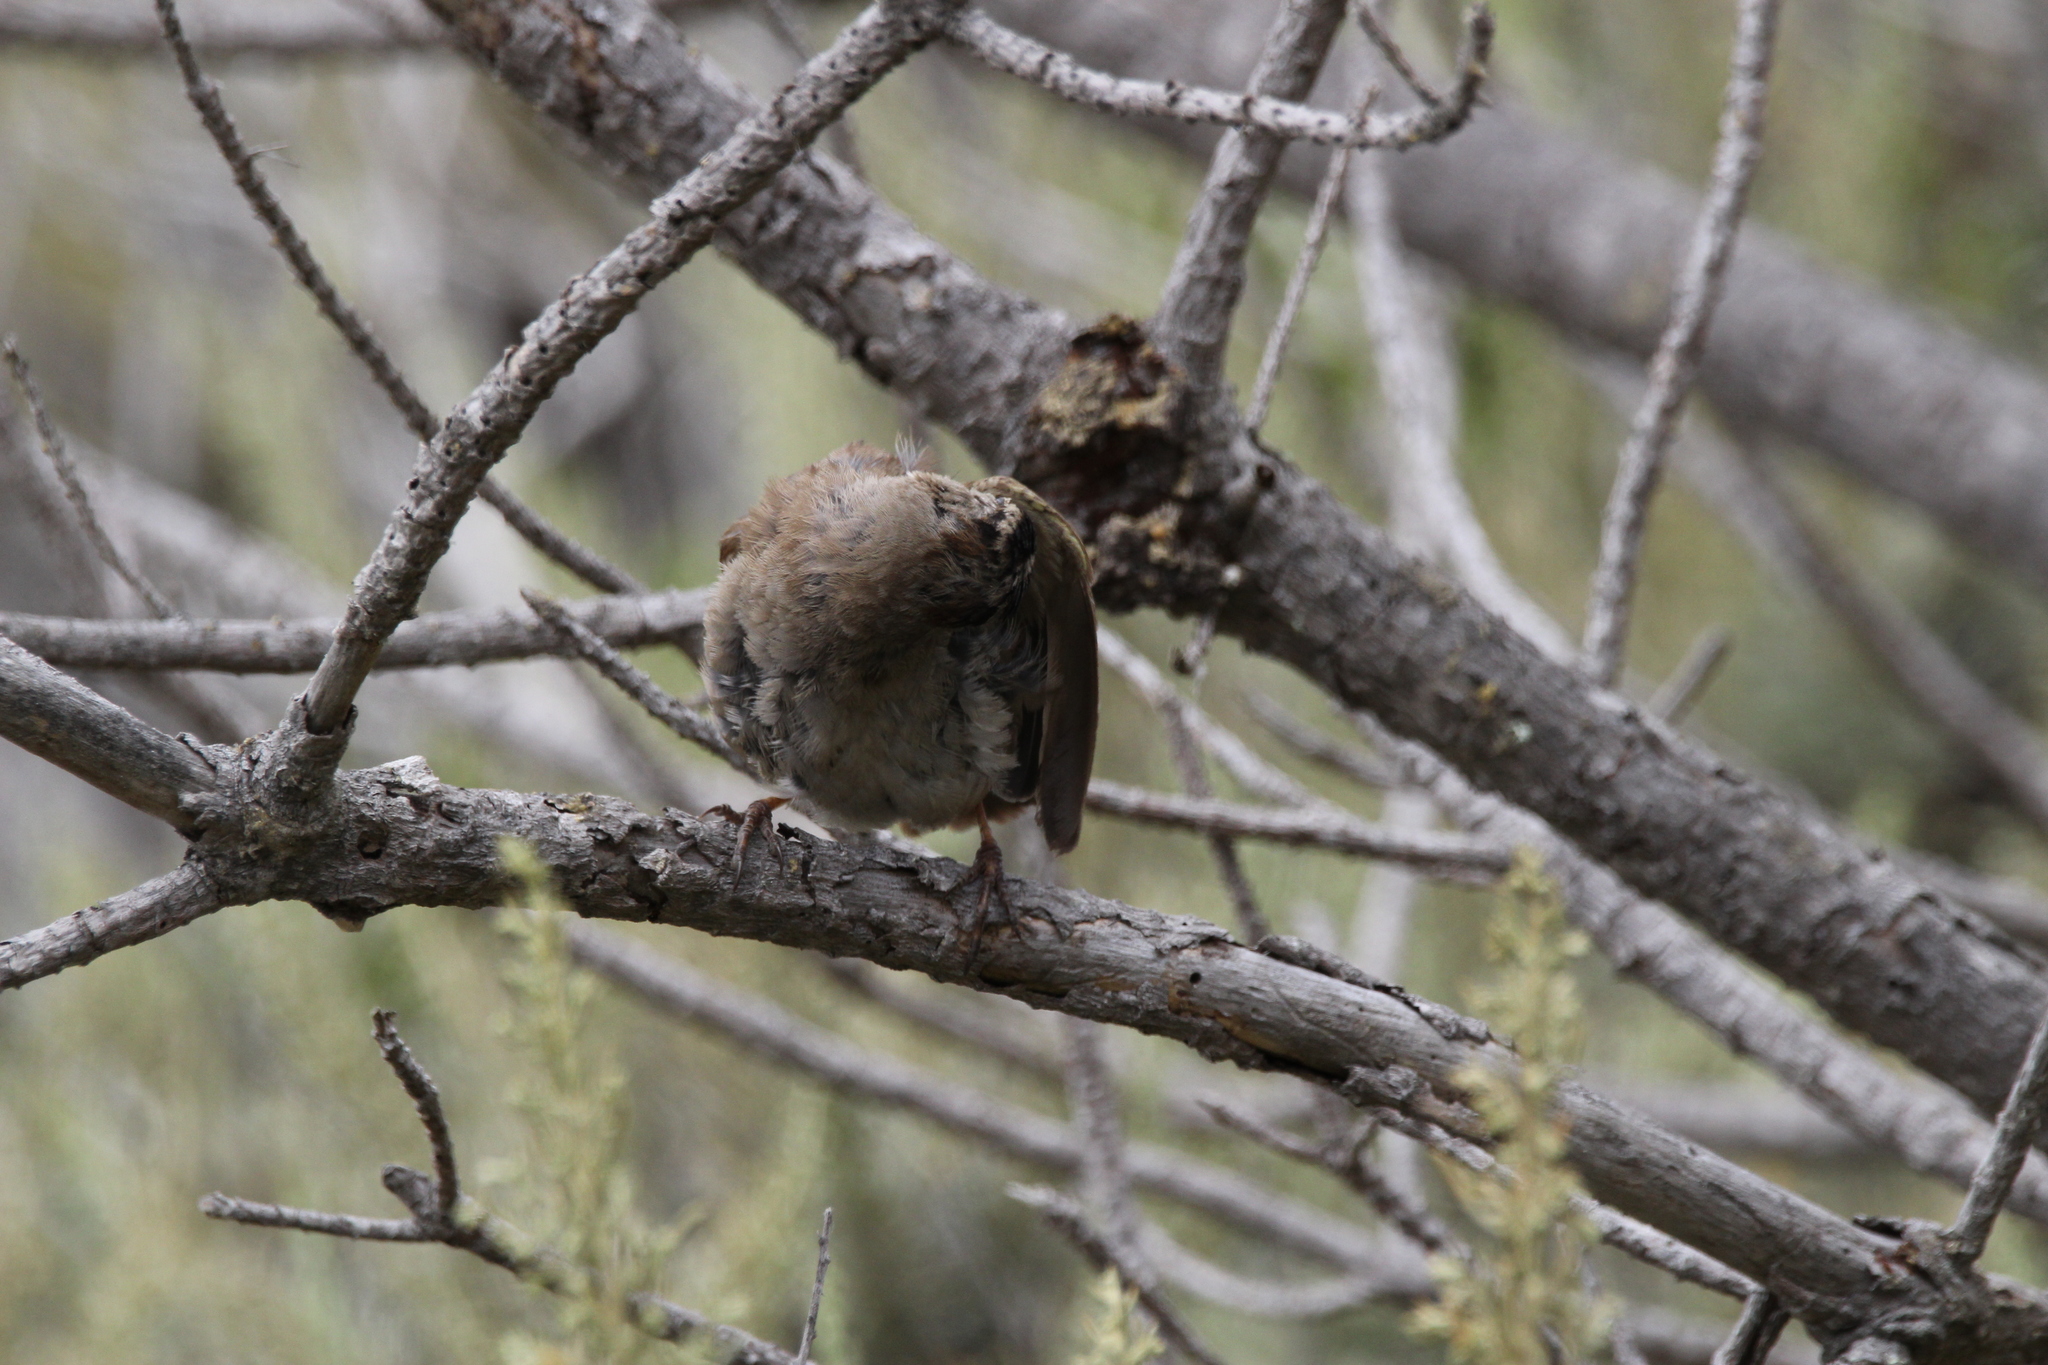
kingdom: Animalia
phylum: Chordata
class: Aves
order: Passeriformes
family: Passerellidae
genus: Zonotrichia
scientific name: Zonotrichia leucophrys
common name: White-crowned sparrow
